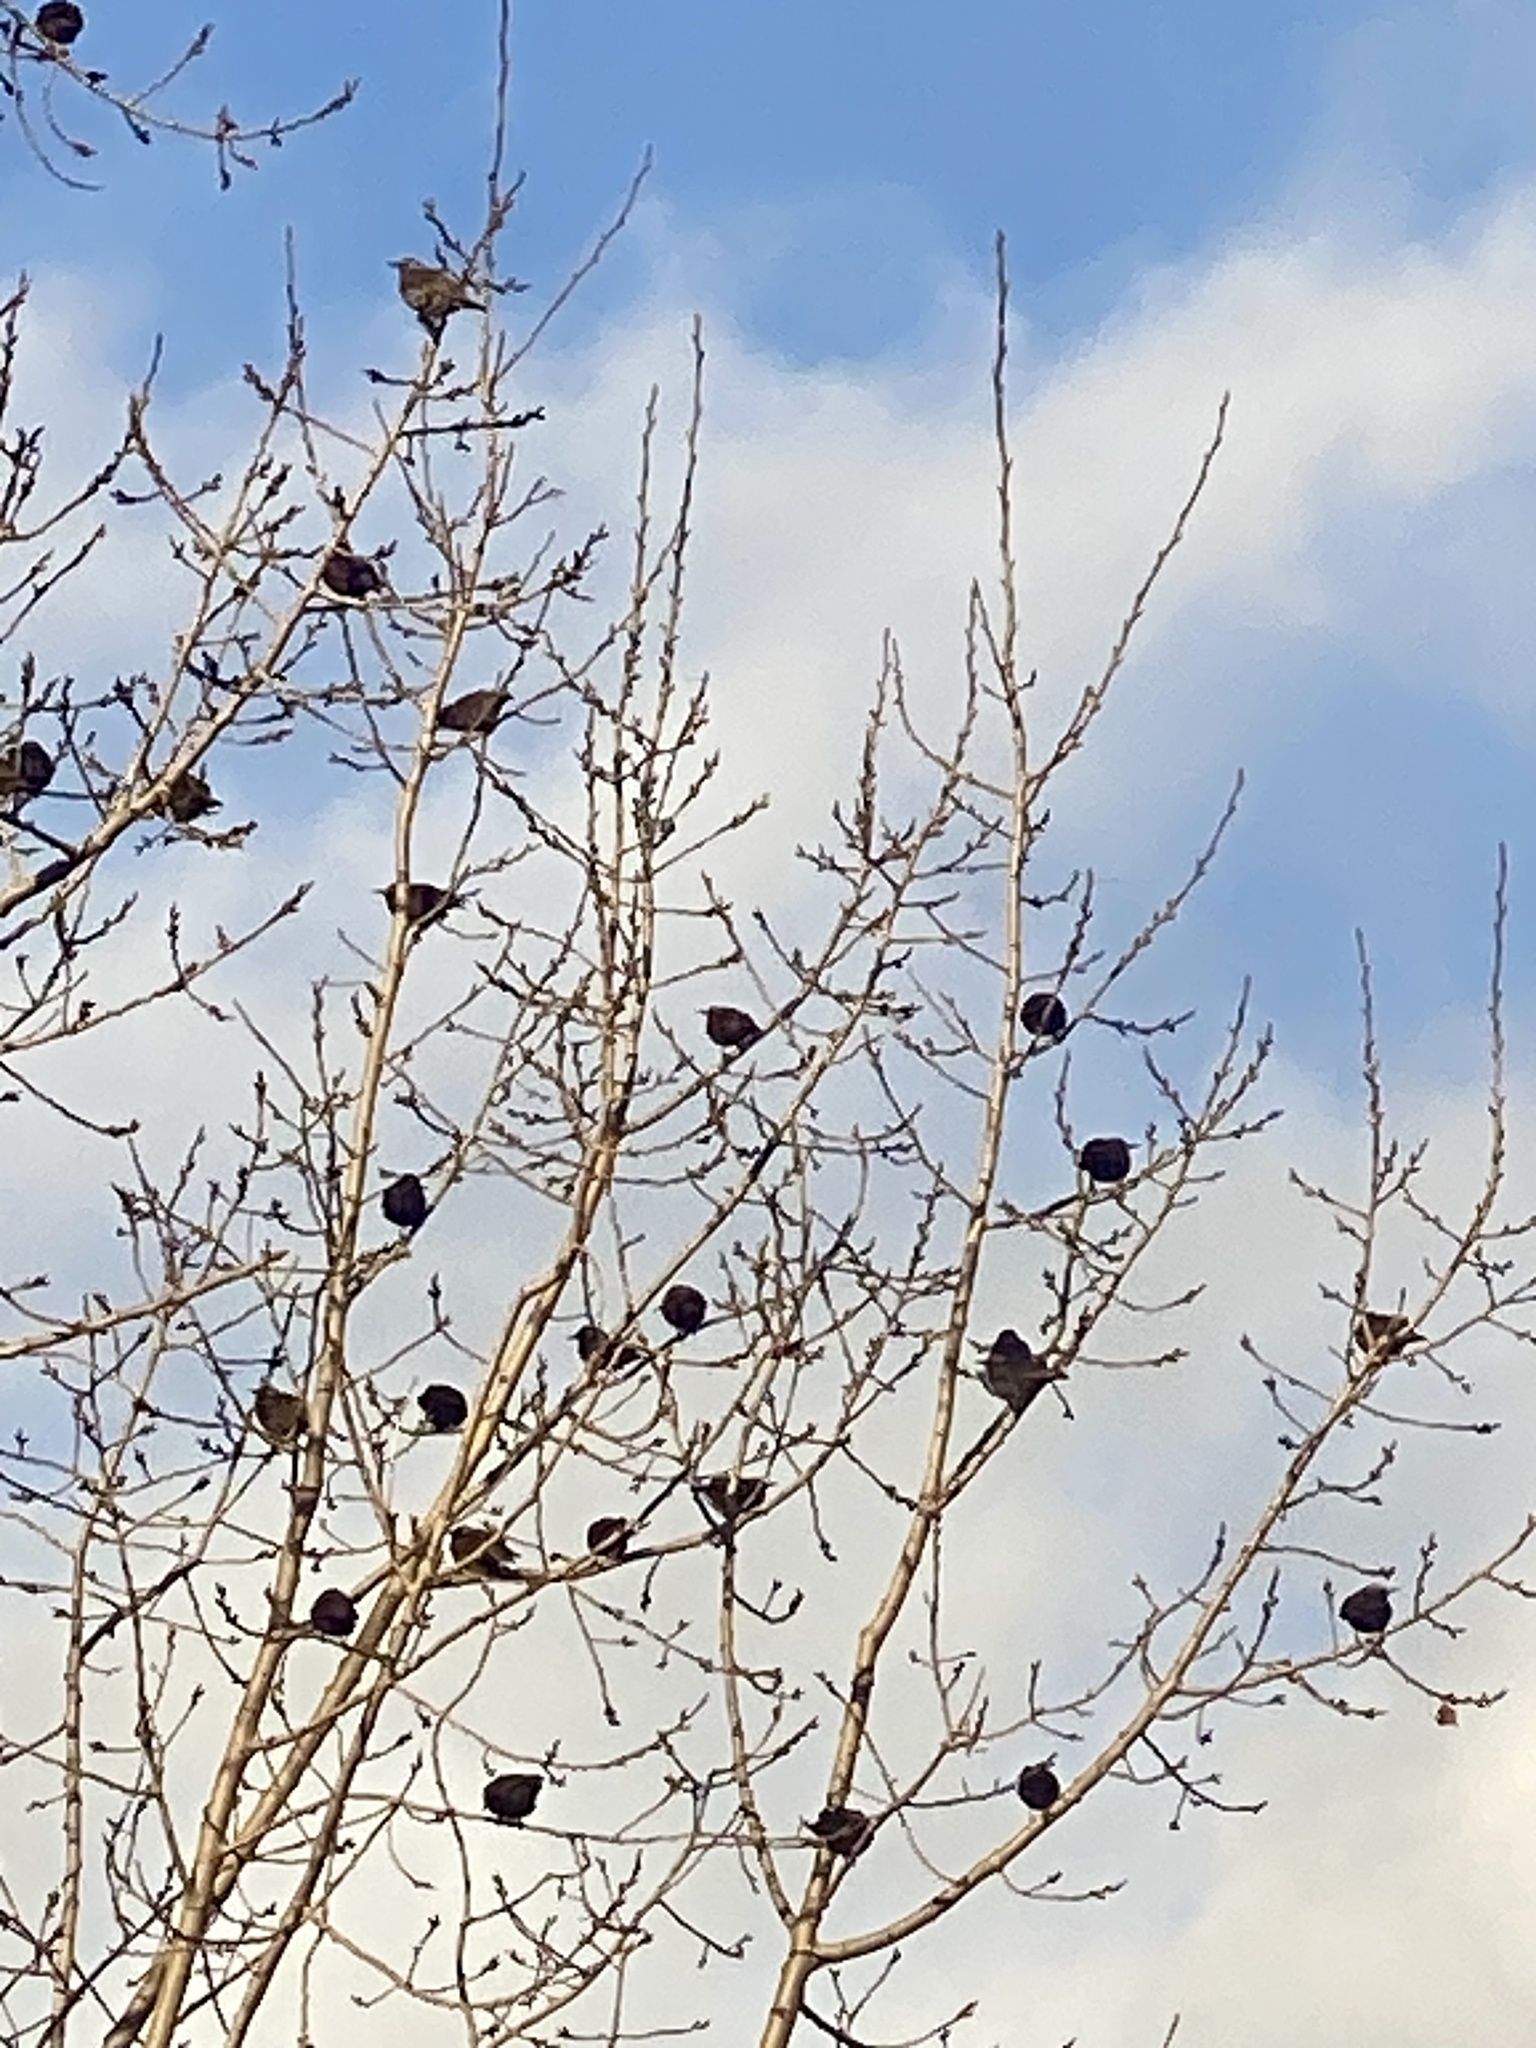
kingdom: Animalia
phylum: Chordata
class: Aves
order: Passeriformes
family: Sturnidae
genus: Sturnus
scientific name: Sturnus vulgaris
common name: Common starling
